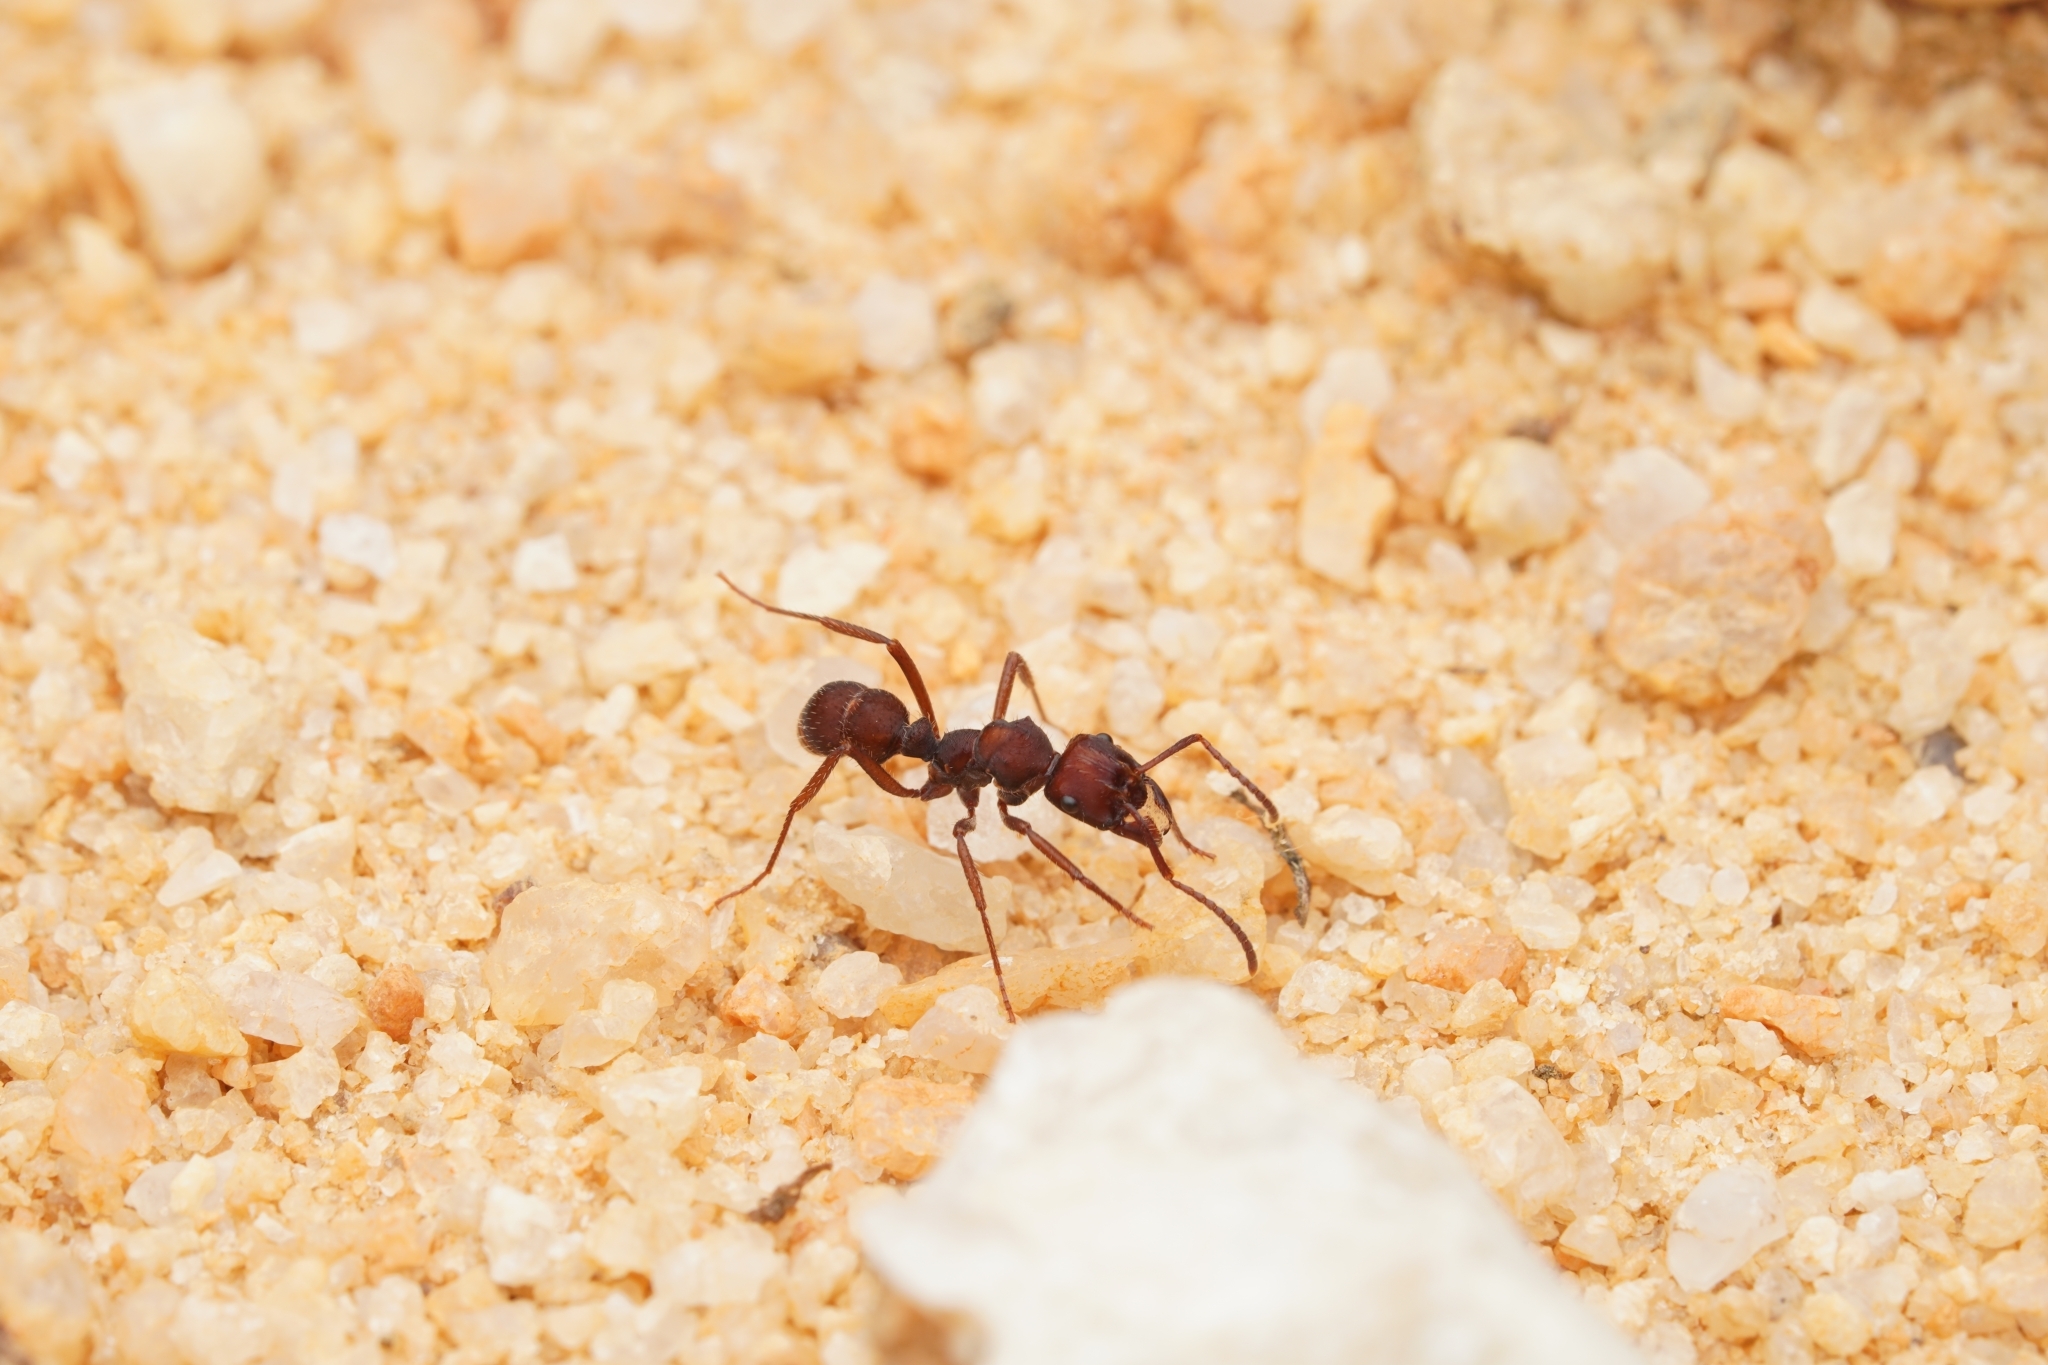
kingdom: Animalia
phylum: Arthropoda
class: Insecta
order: Hymenoptera
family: Formicidae
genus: Ectatomma
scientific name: Ectatomma brunneum
